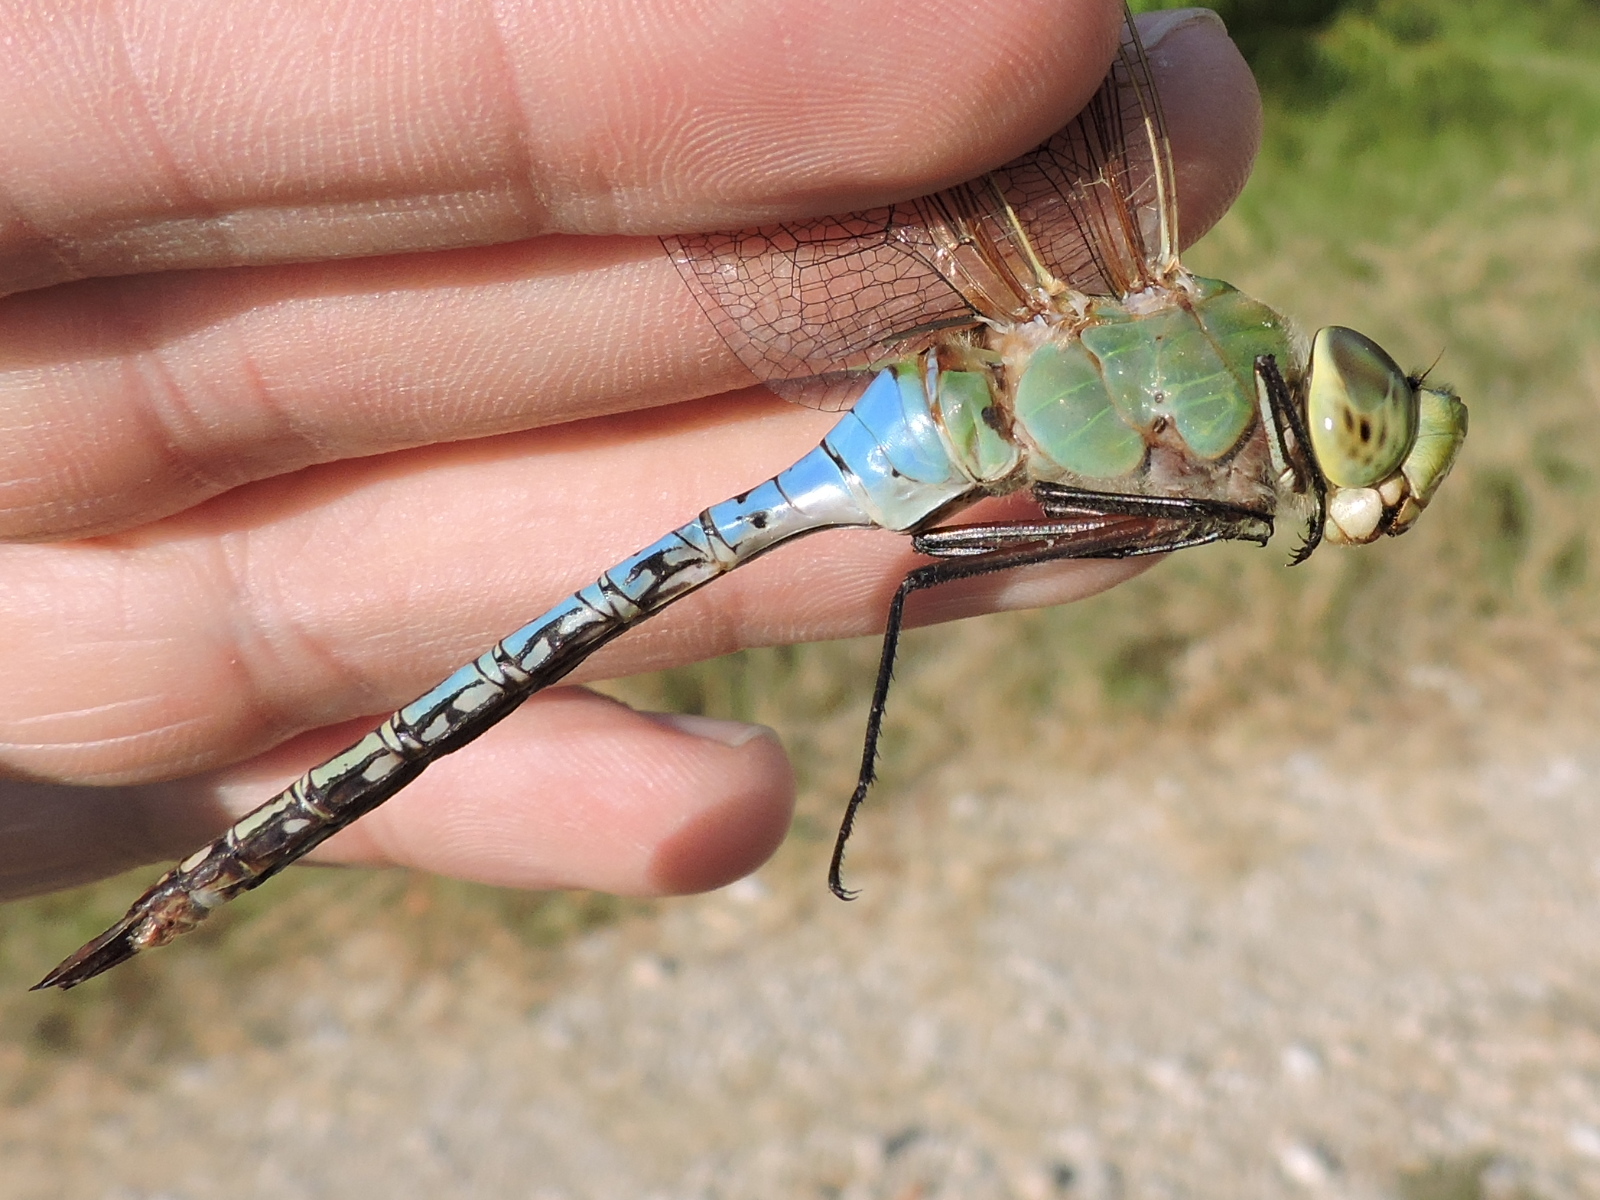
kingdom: Animalia
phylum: Arthropoda
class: Insecta
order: Odonata
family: Aeshnidae
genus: Anax
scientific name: Anax junius
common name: Common green darner
